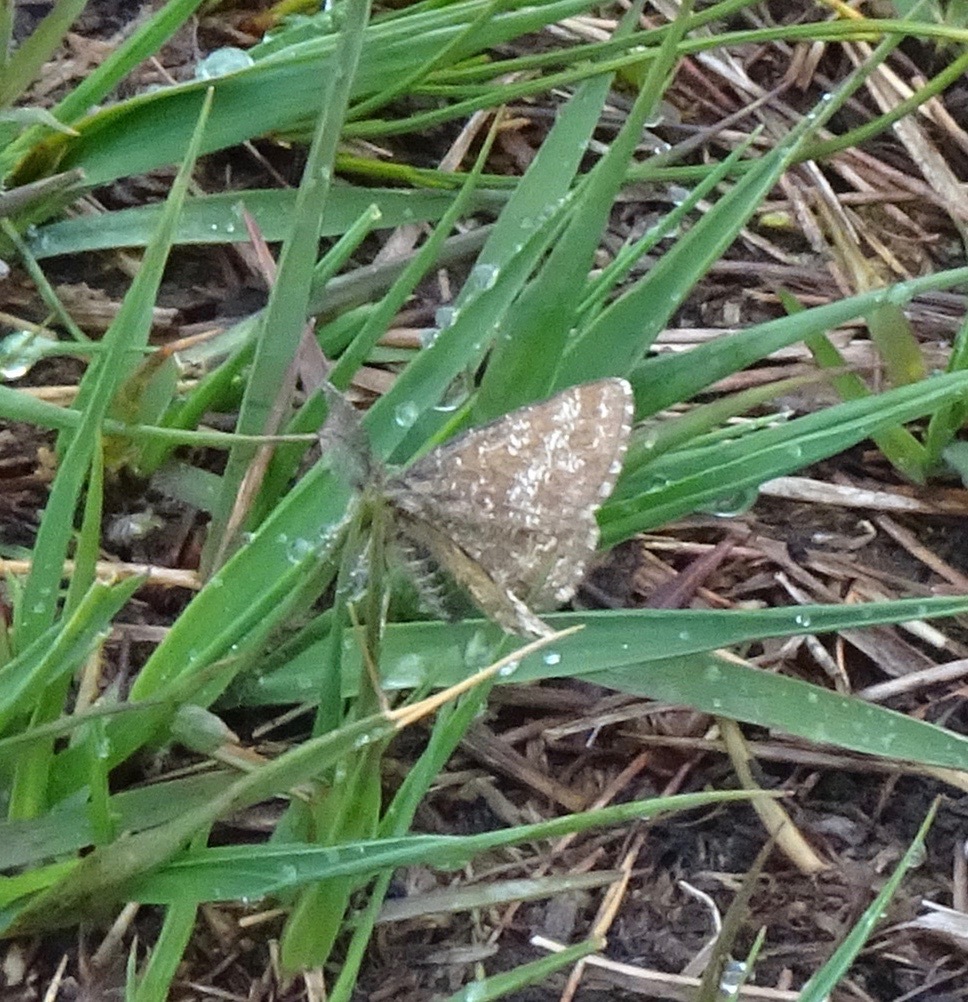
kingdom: Animalia
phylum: Arthropoda
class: Insecta
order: Lepidoptera
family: Geometridae
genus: Ematurga
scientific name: Ematurga atomaria
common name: Common heath
